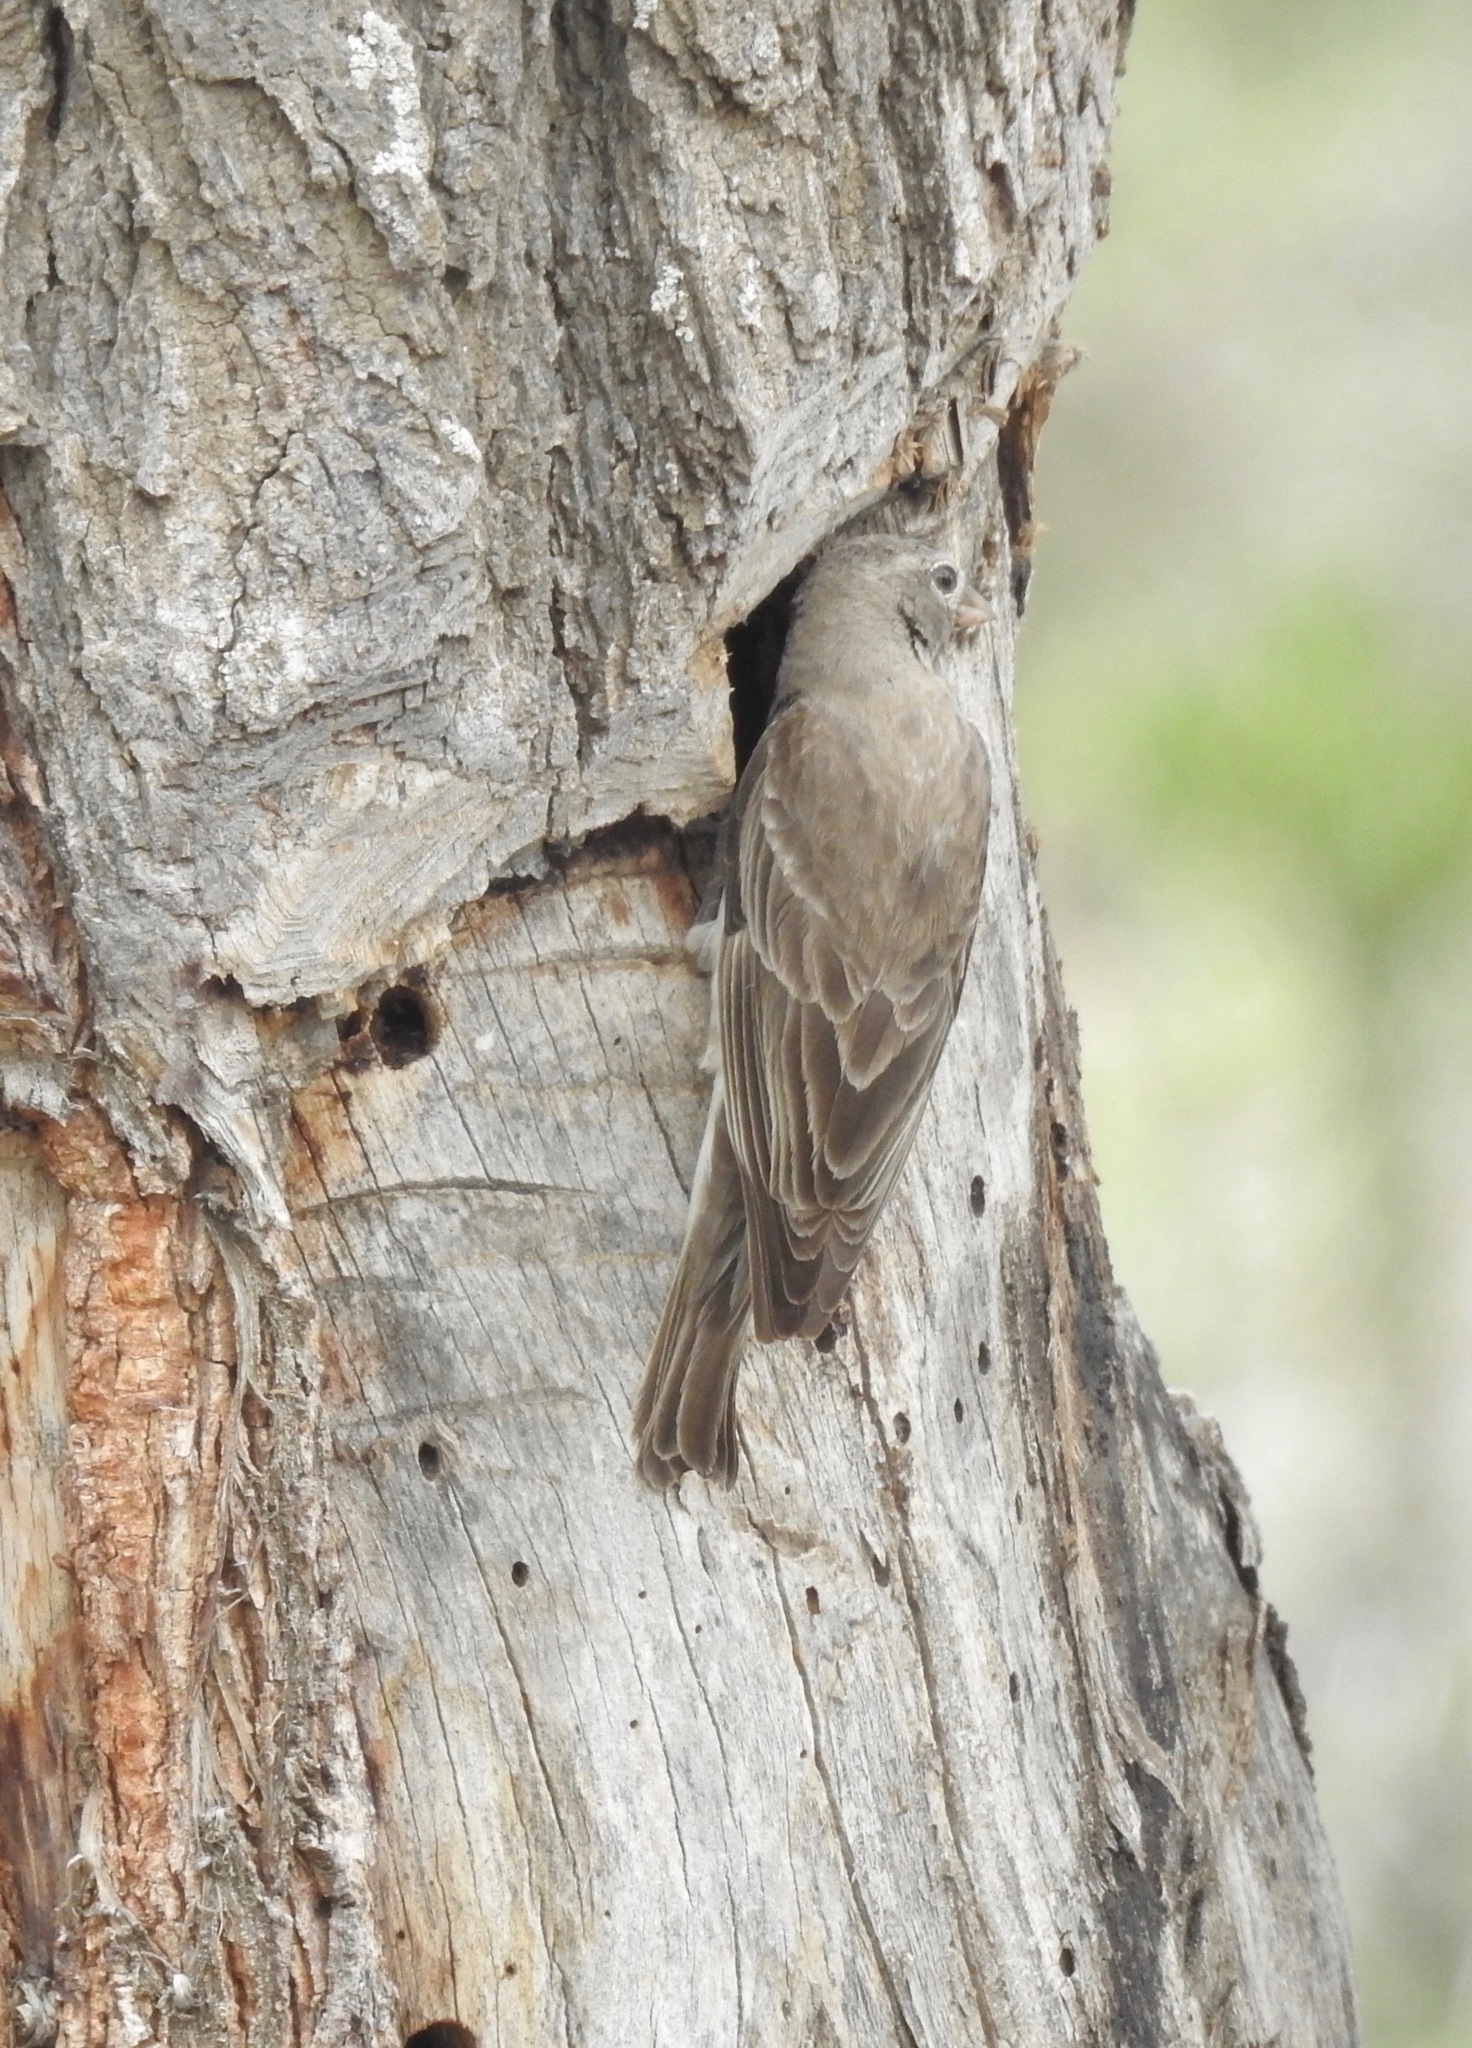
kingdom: Animalia
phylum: Chordata
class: Aves
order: Passeriformes
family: Passeridae
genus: Gymnoris
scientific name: Gymnoris pyrgita
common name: Yellow-spotted petronia
